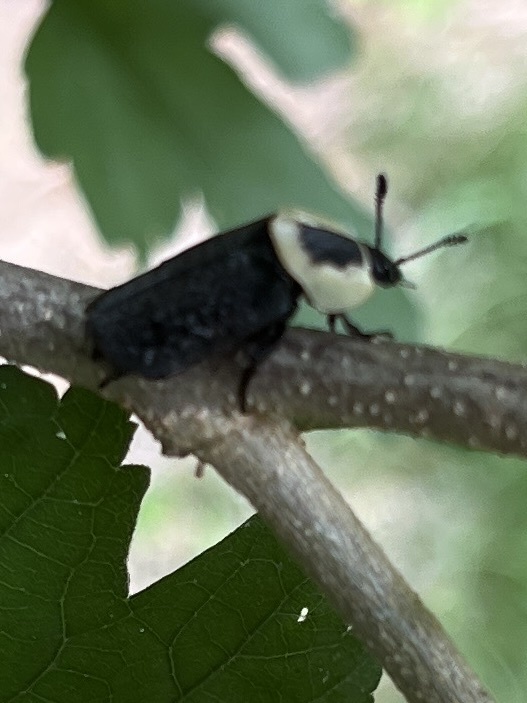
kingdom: Animalia
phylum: Arthropoda
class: Insecta
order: Coleoptera
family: Staphylinidae
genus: Necrophila
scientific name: Necrophila americana
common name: American carrion beetle
